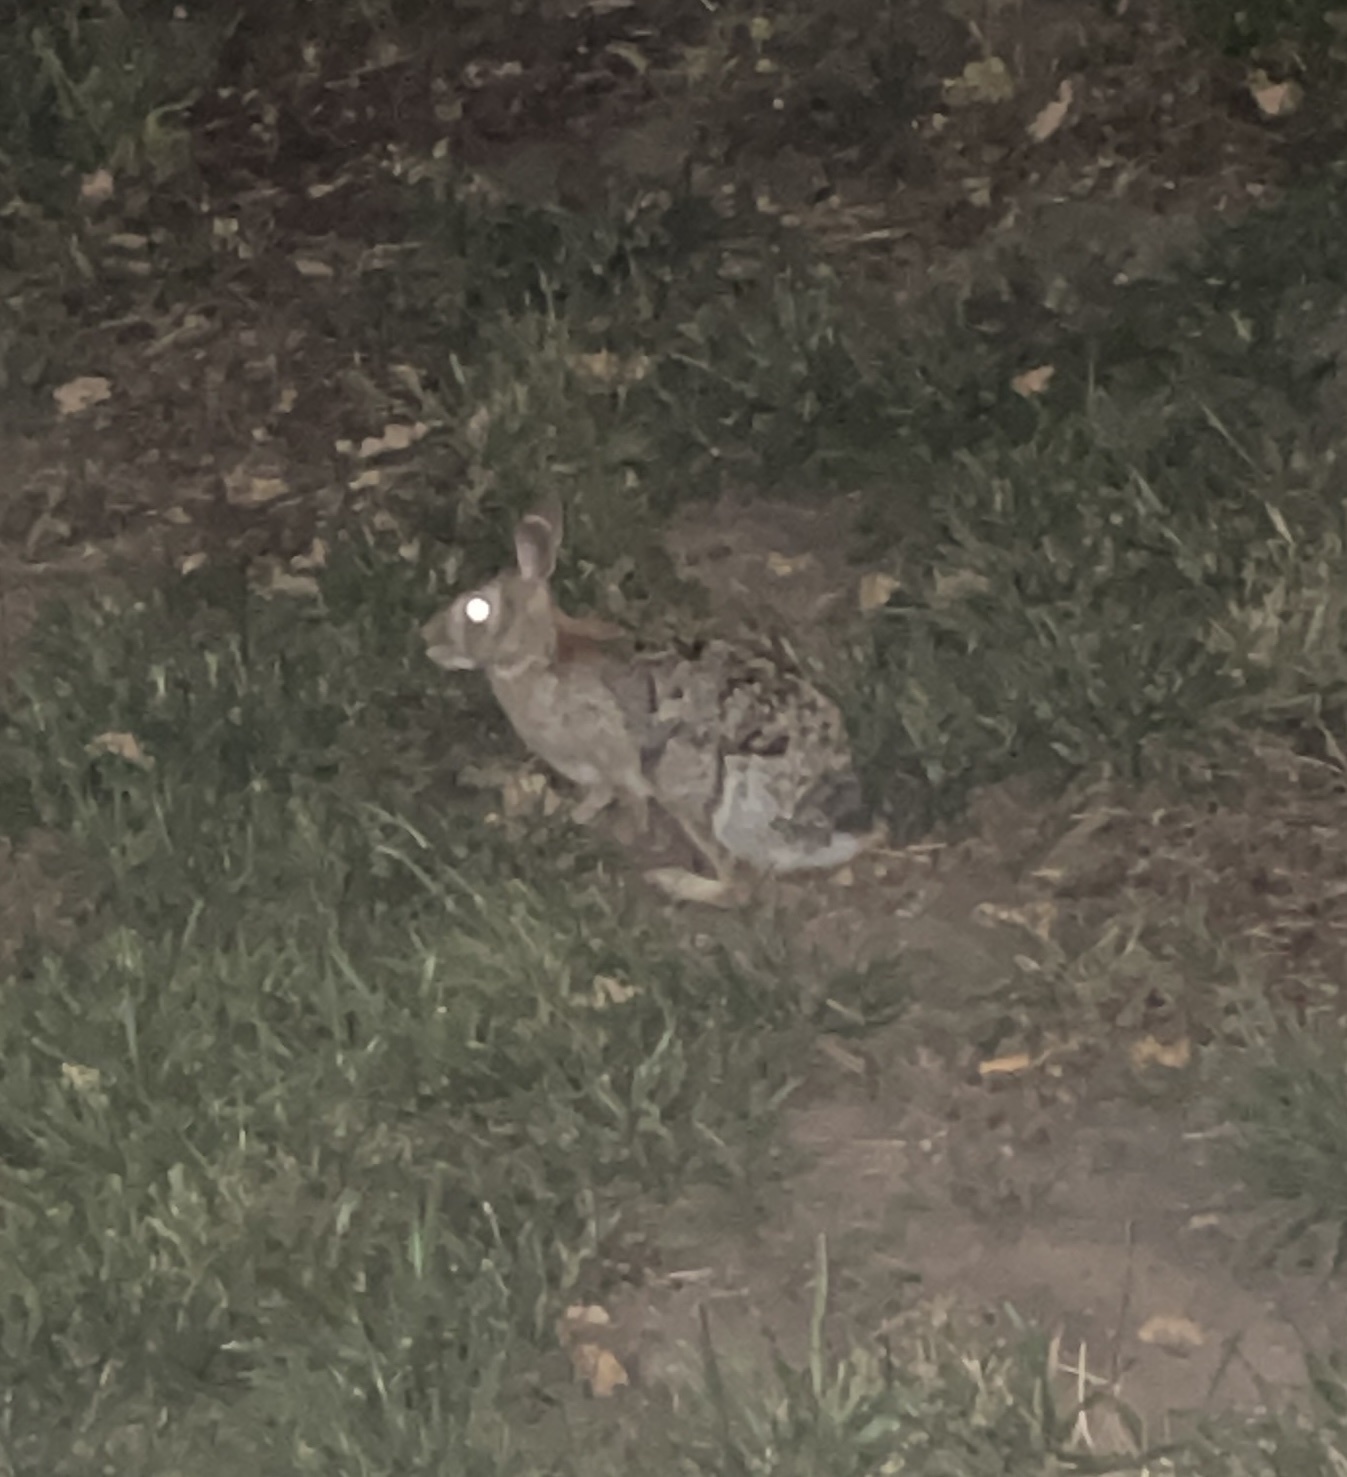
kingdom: Animalia
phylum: Chordata
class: Mammalia
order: Lagomorpha
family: Leporidae
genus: Sylvilagus
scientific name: Sylvilagus floridanus
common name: Eastern cottontail
